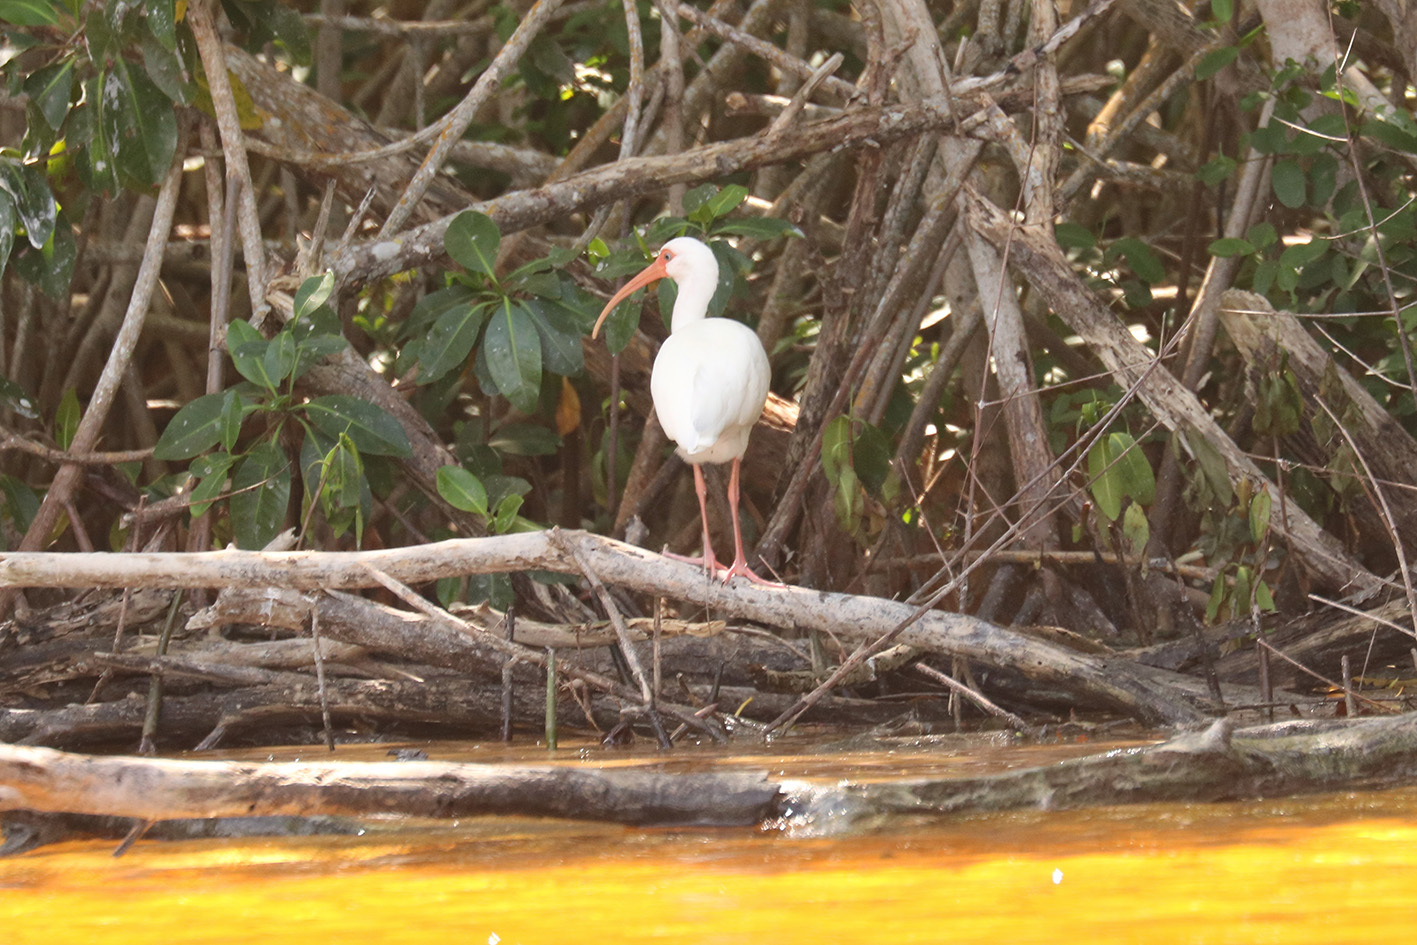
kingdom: Animalia
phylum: Chordata
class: Aves
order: Pelecaniformes
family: Threskiornithidae
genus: Eudocimus
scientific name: Eudocimus albus
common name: White ibis
